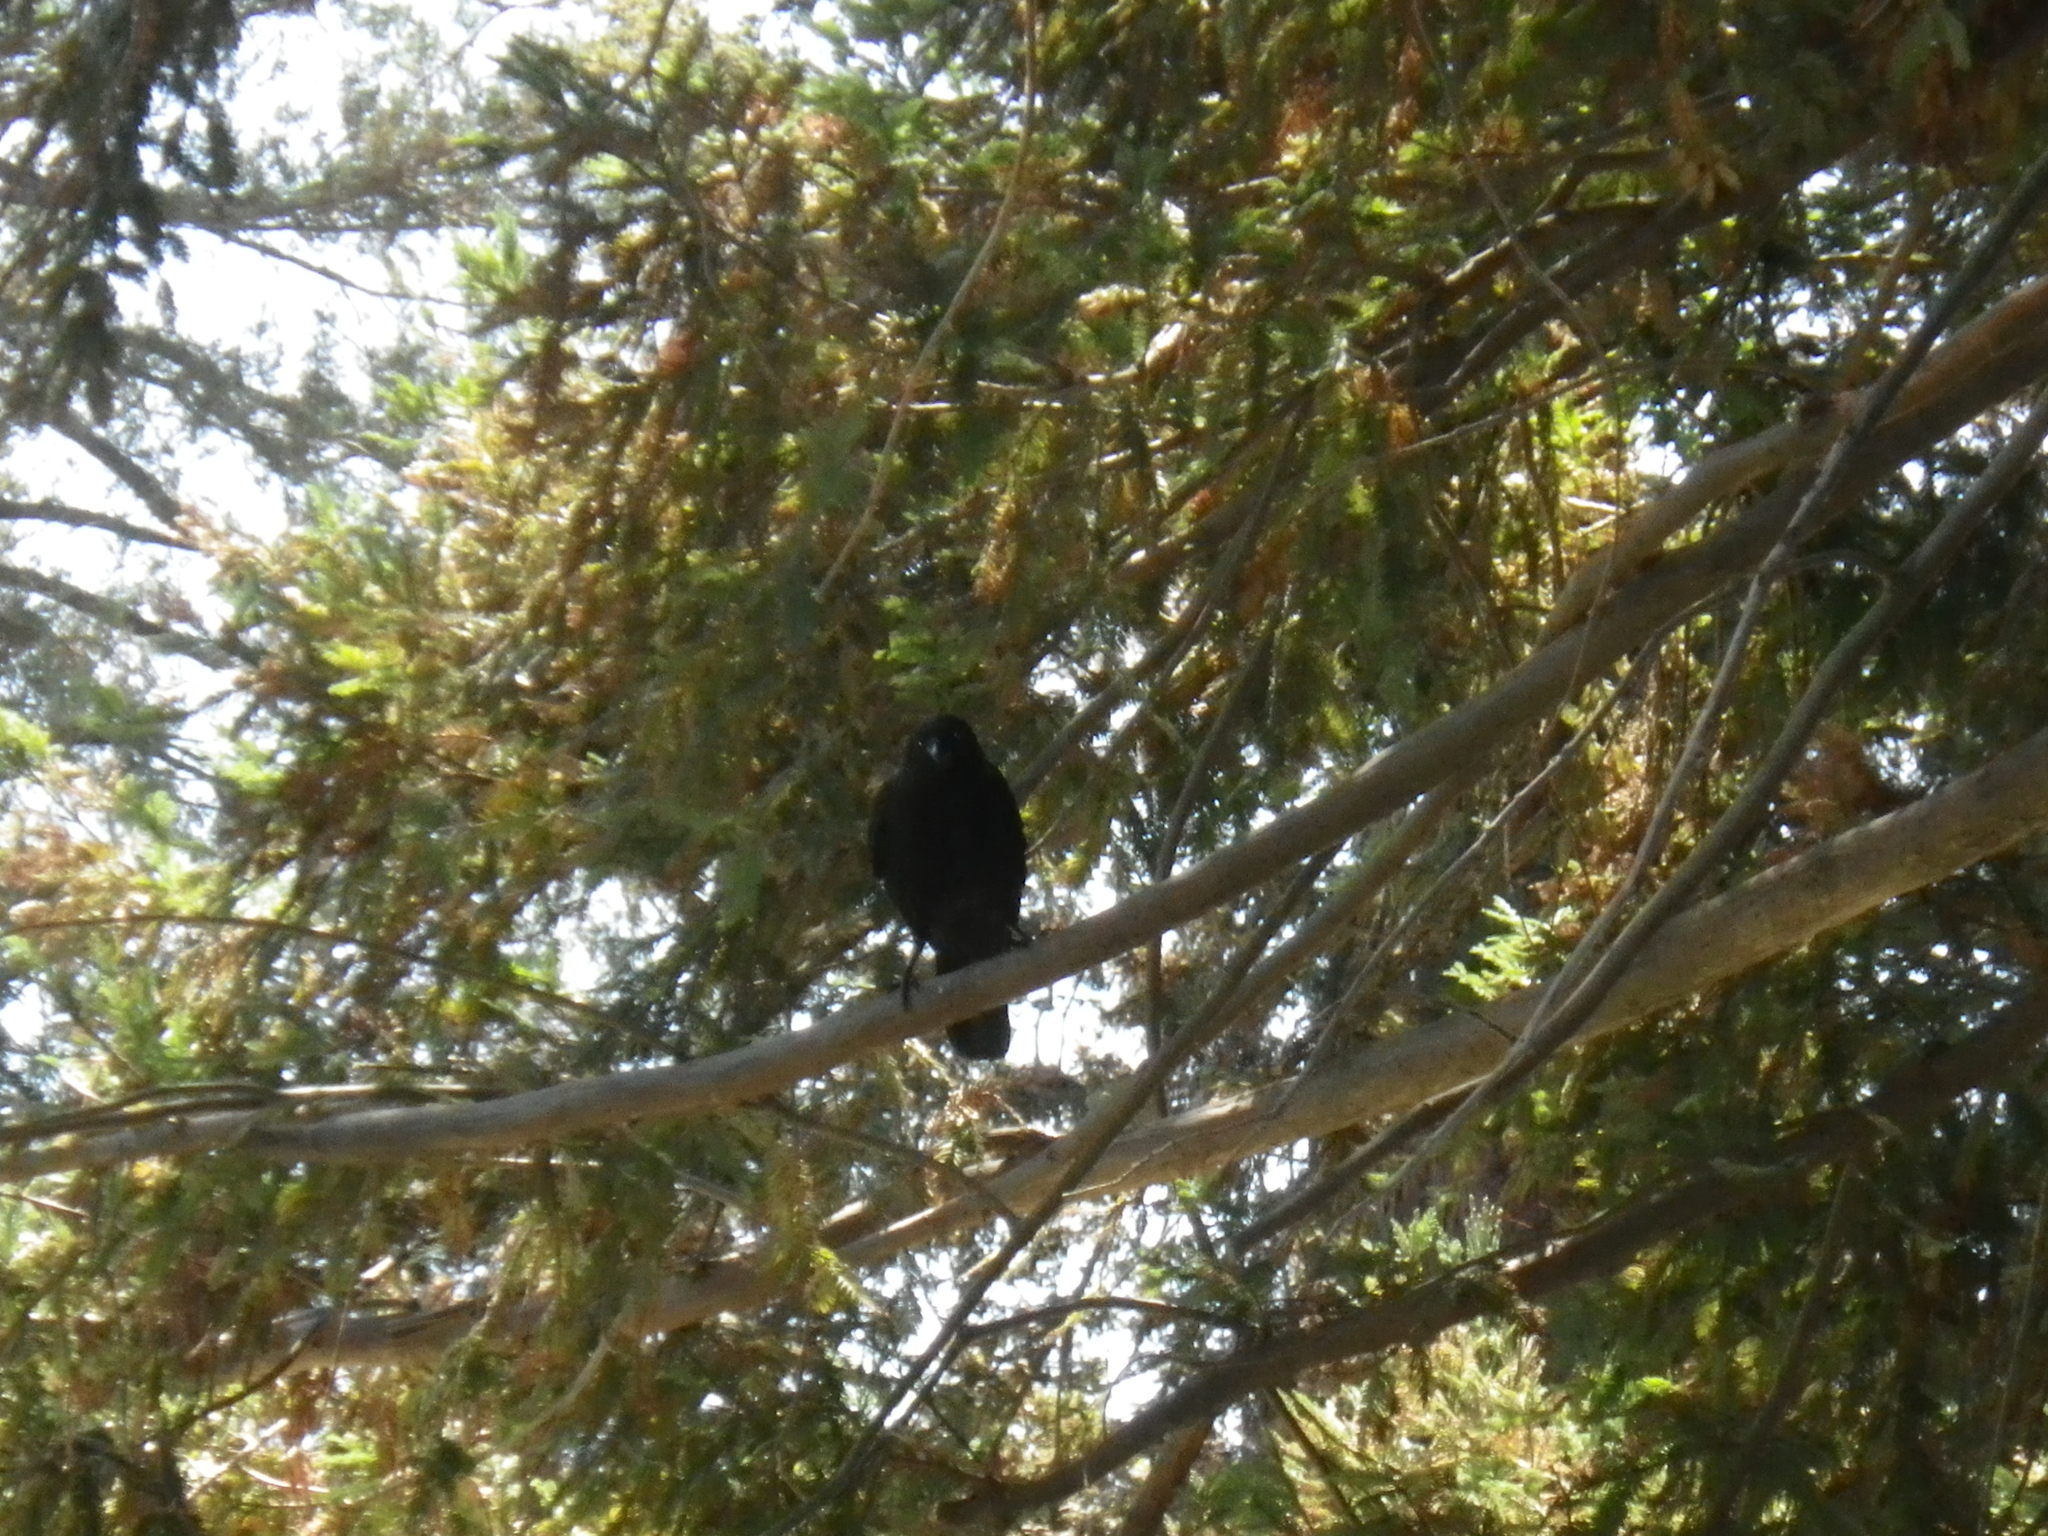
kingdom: Animalia
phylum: Chordata
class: Aves
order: Passeriformes
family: Corvidae
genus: Corvus
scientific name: Corvus brachyrhynchos
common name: American crow
